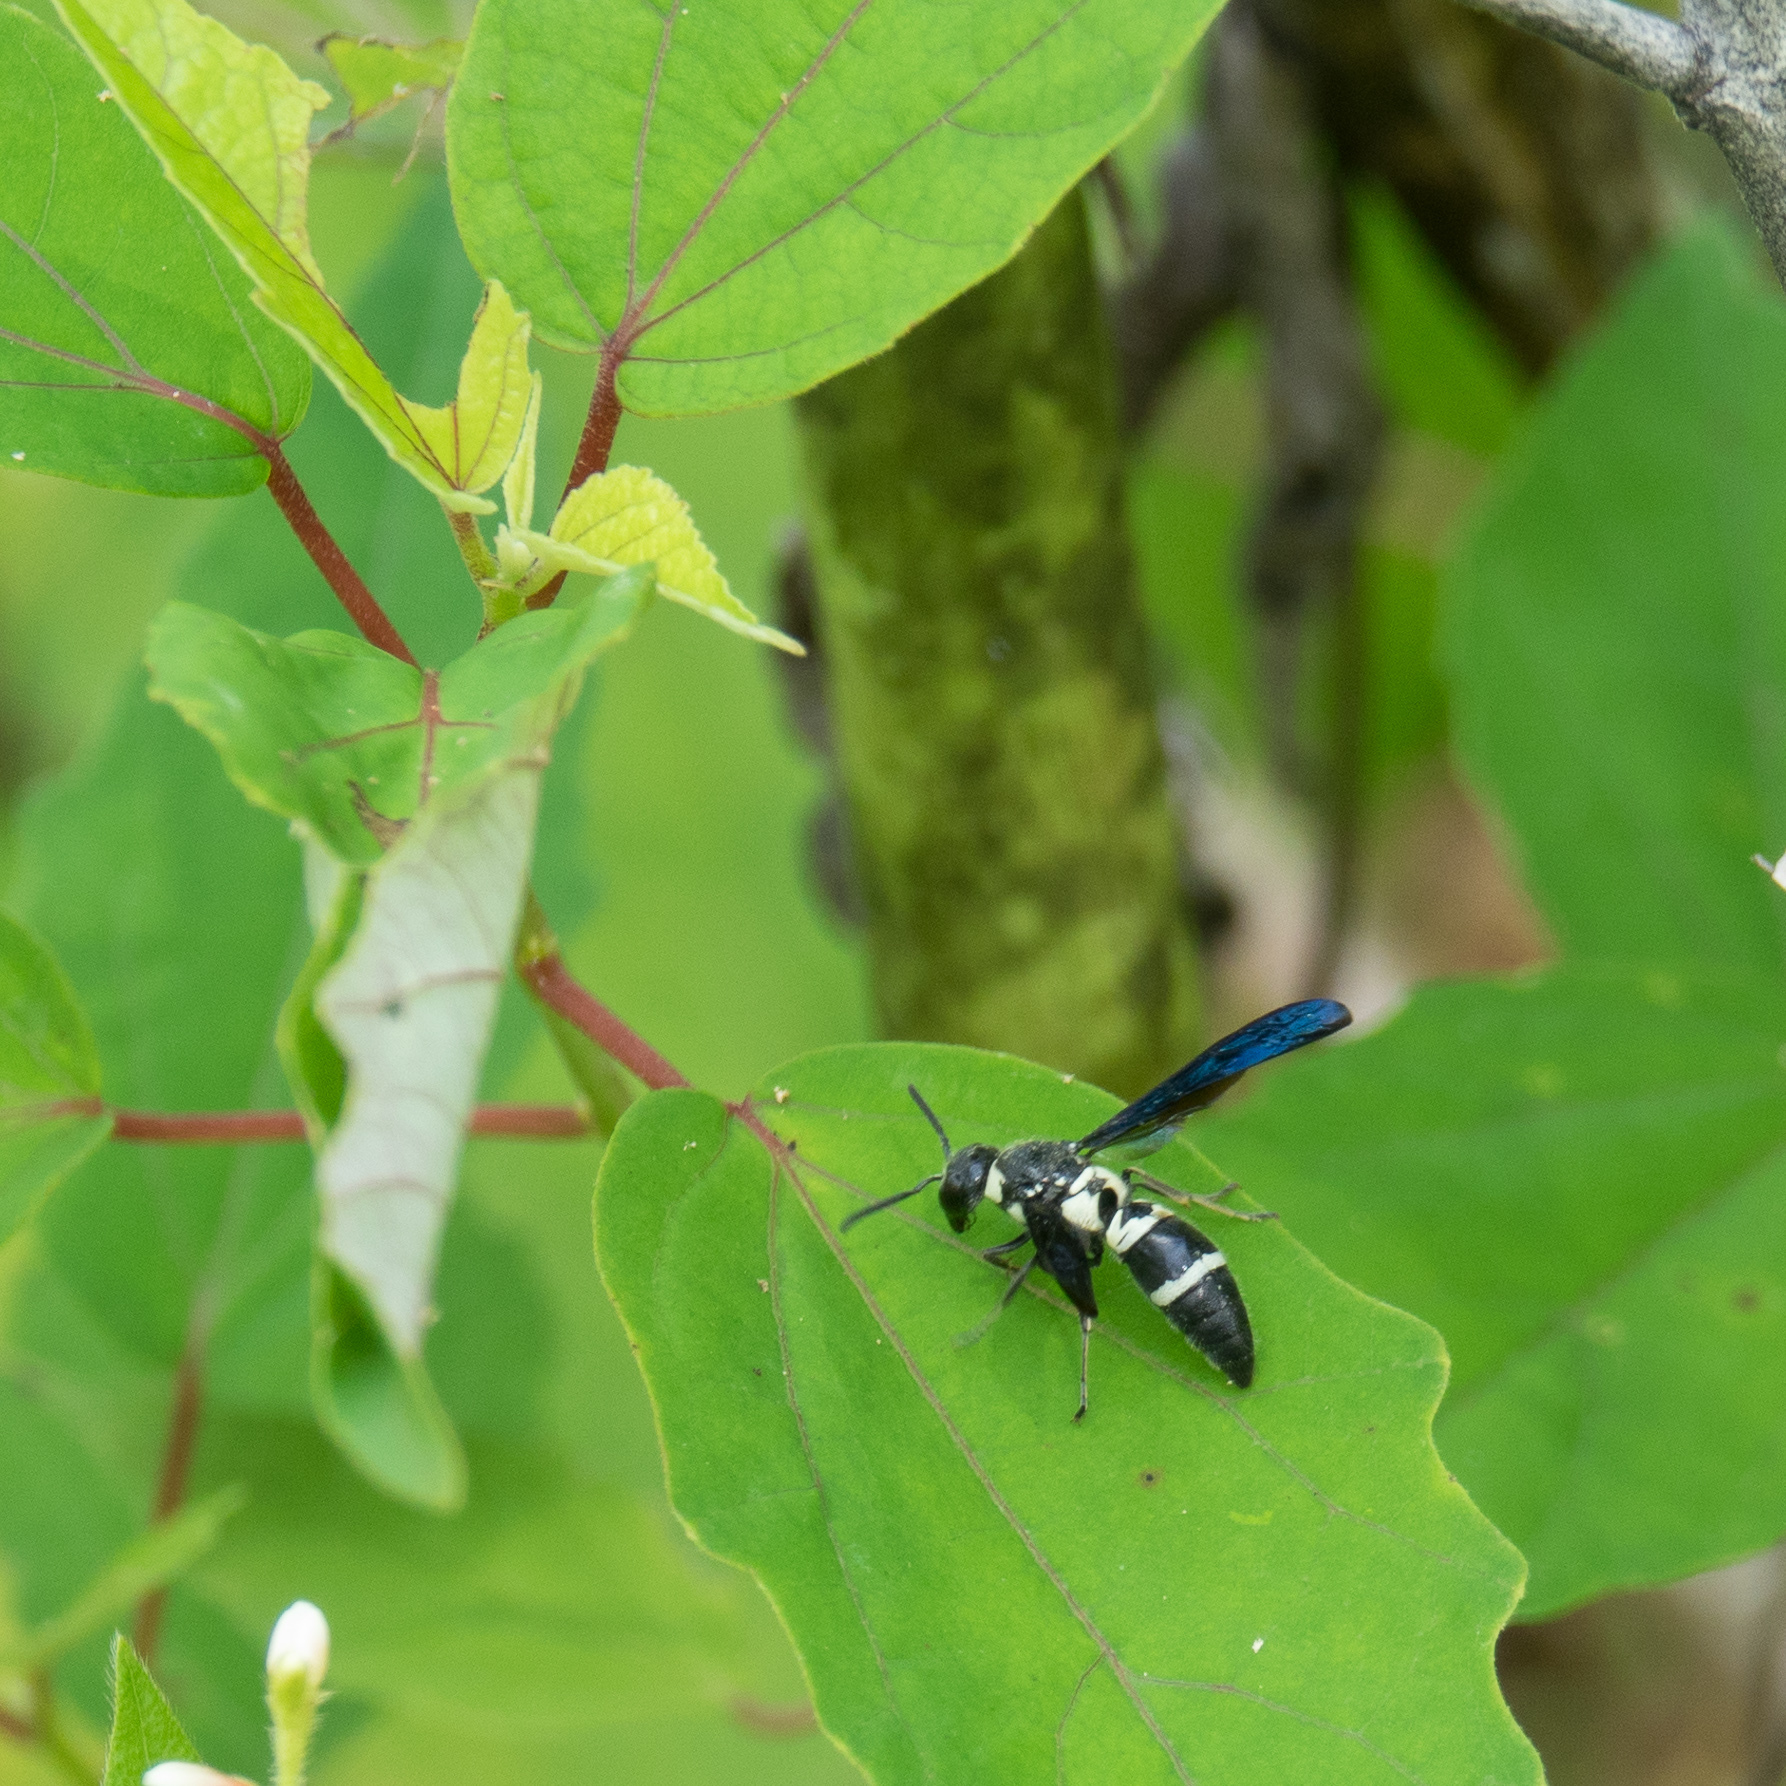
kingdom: Animalia
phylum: Arthropoda
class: Insecta
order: Hymenoptera
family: Eumenidae
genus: Pseudodynerus
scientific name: Pseudodynerus quadrisectus
